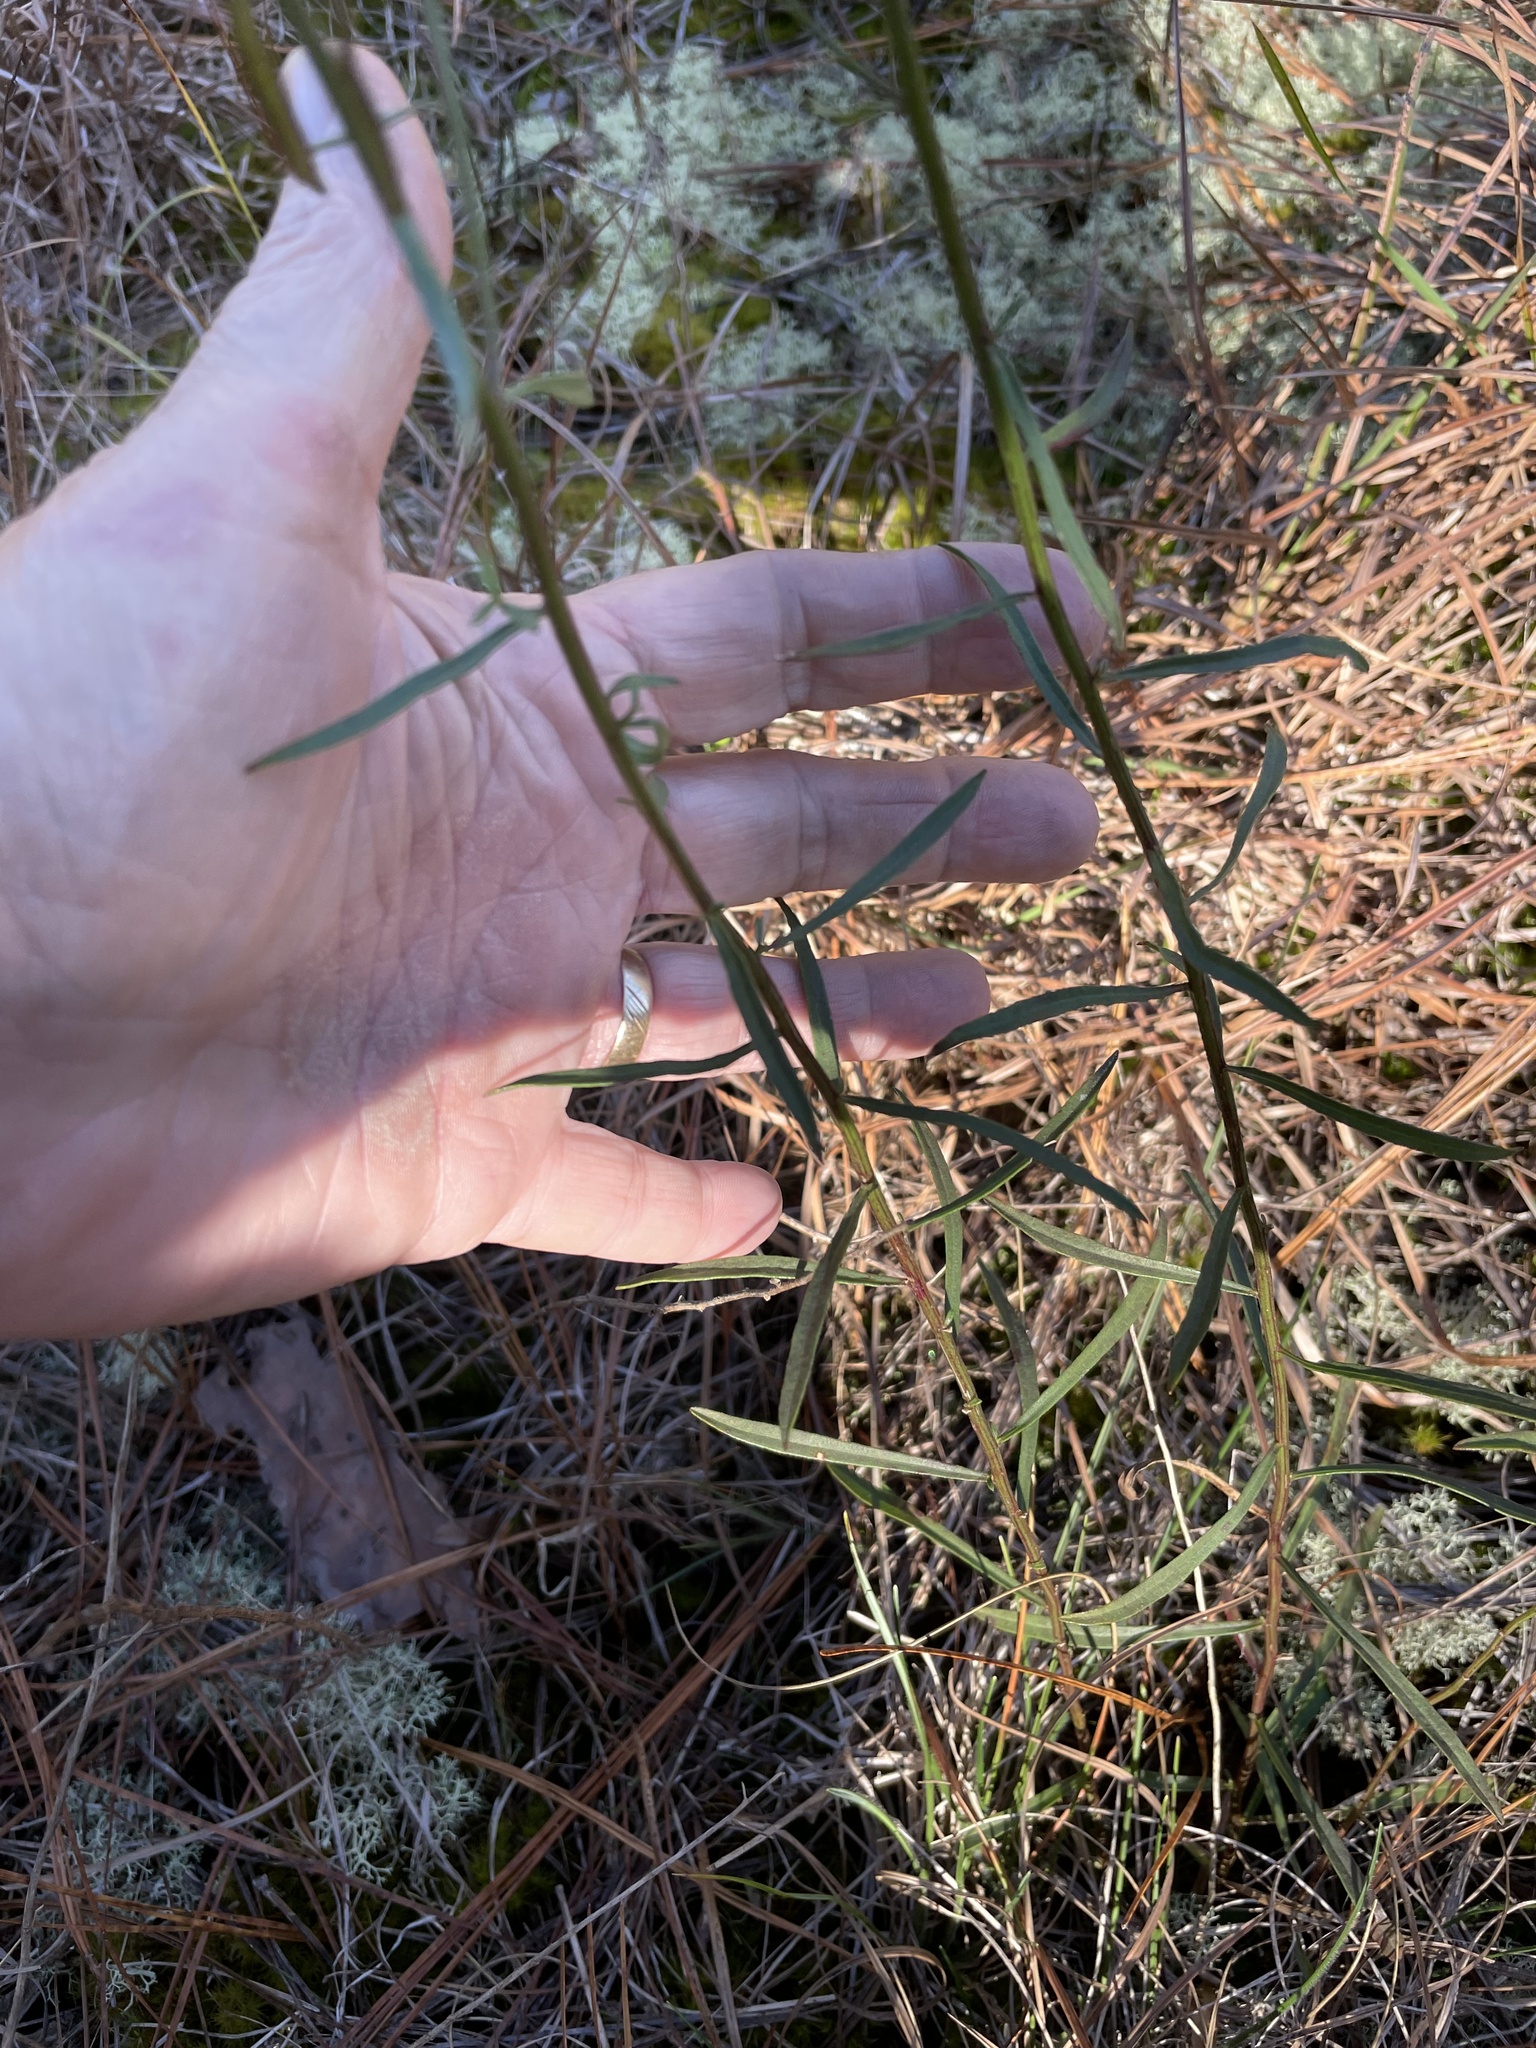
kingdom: Plantae
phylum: Tracheophyta
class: Magnoliopsida
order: Asterales
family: Asteraceae
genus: Sericocarpus
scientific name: Sericocarpus linifolius
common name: Narrow-leaf aster
